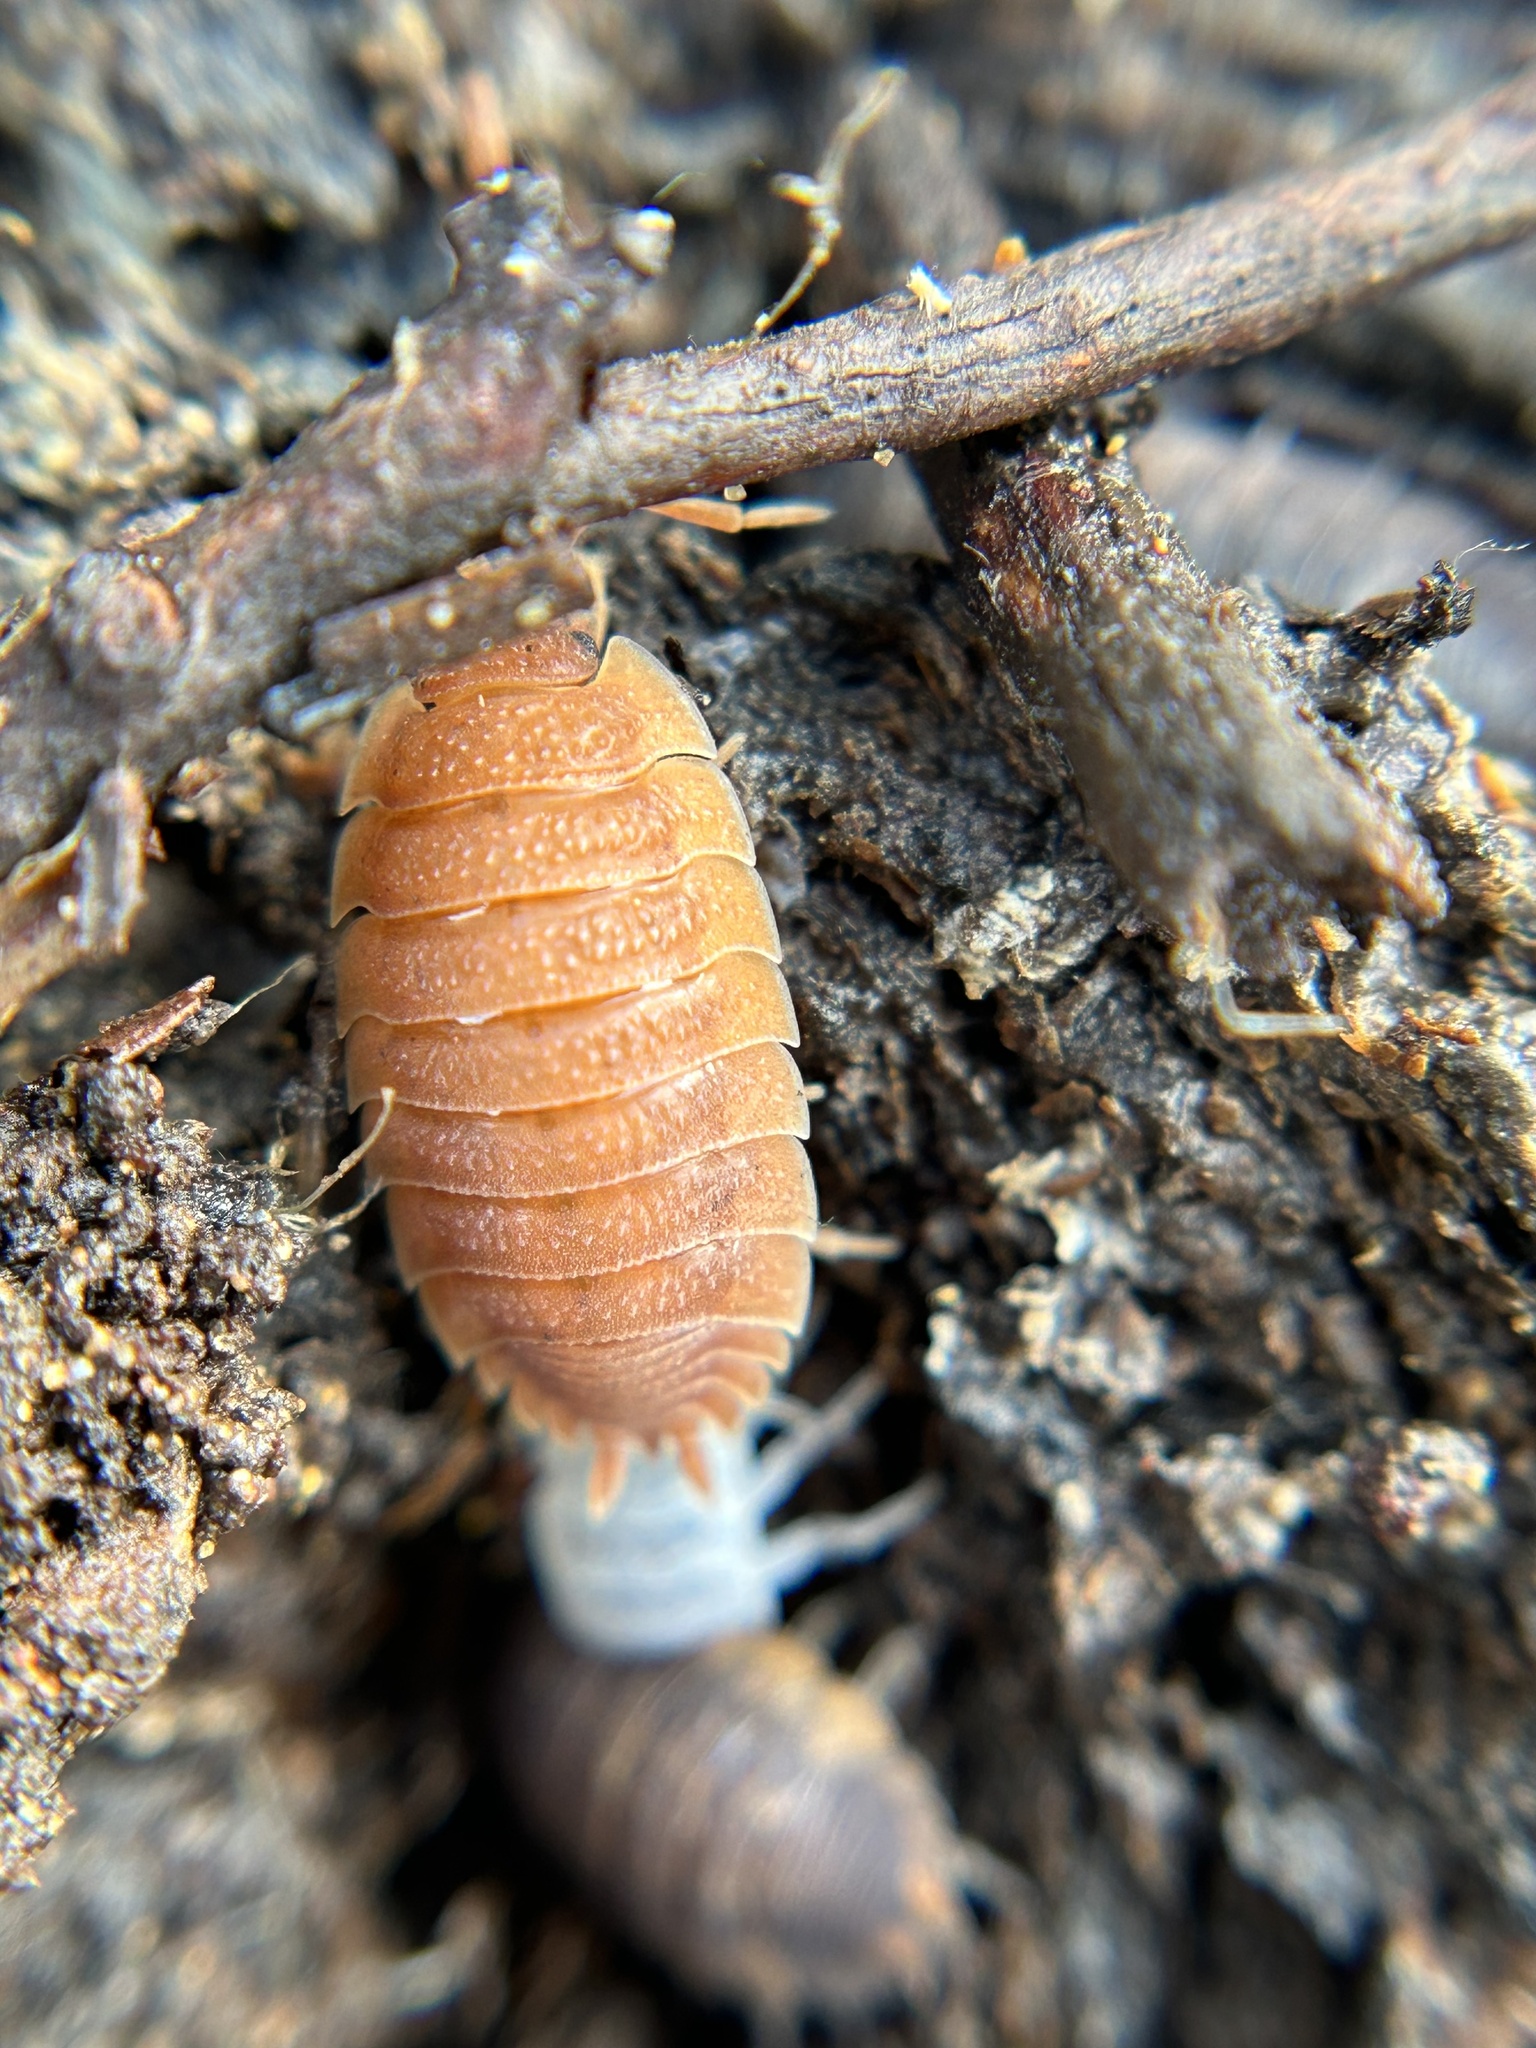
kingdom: Animalia
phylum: Arthropoda
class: Malacostraca
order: Isopoda
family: Porcellionidae
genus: Porcellio
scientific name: Porcellio scaber
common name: Common rough woodlouse
